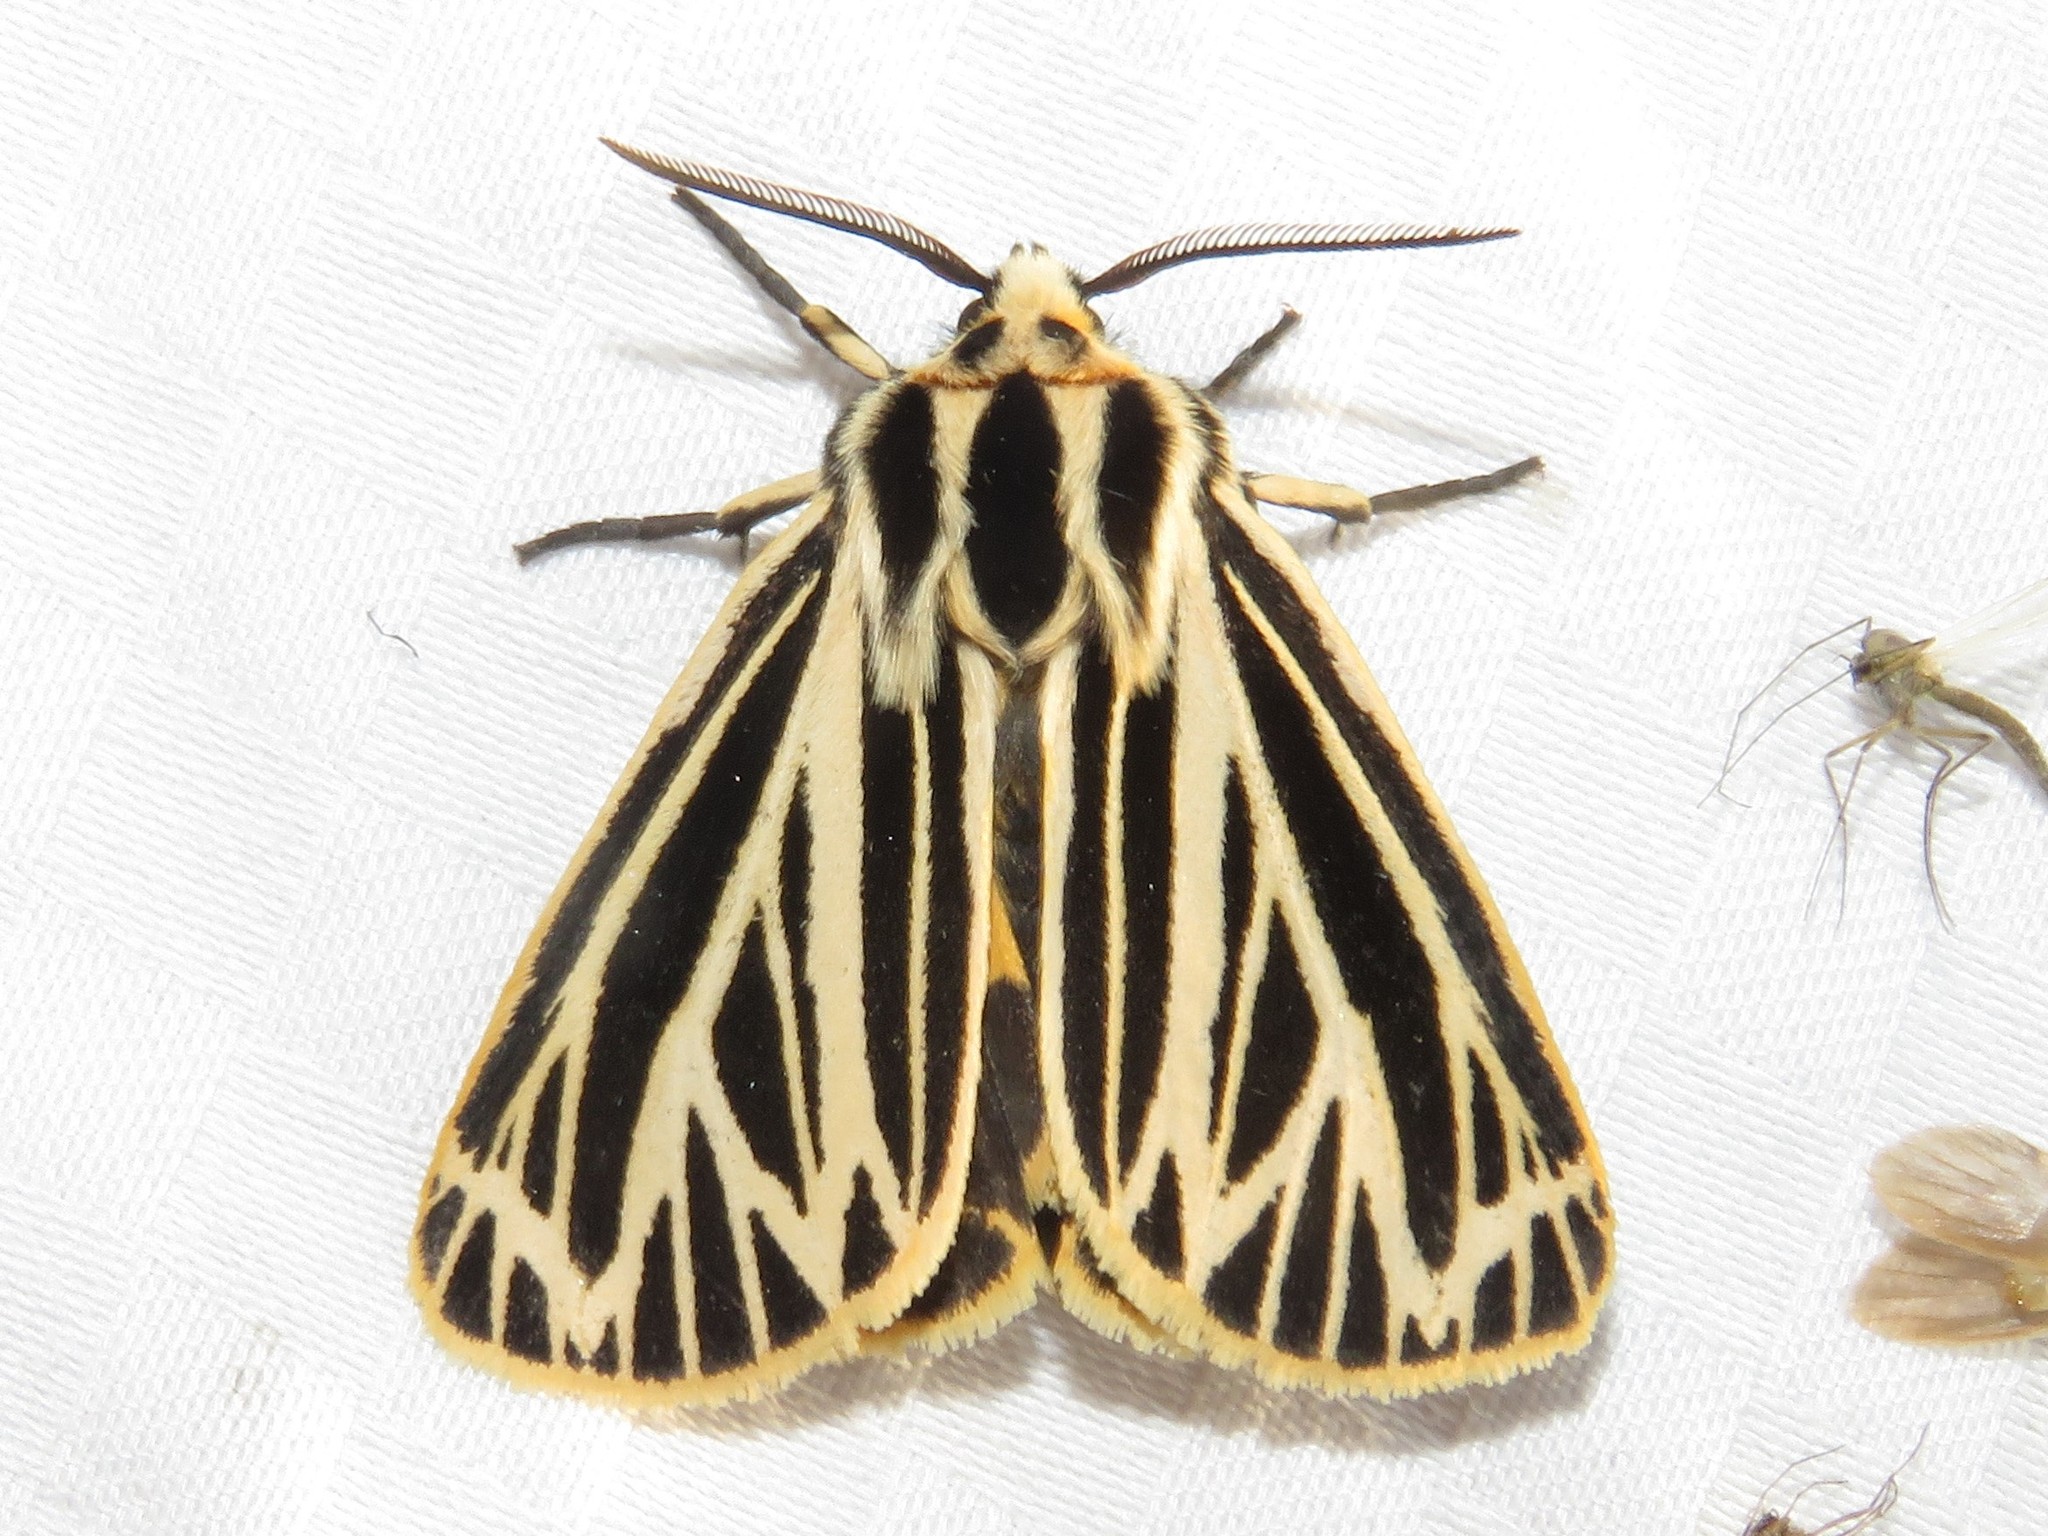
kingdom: Animalia
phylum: Arthropoda
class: Insecta
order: Lepidoptera
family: Erebidae
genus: Grammia
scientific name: Grammia virguncula
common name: Little tiger moth
